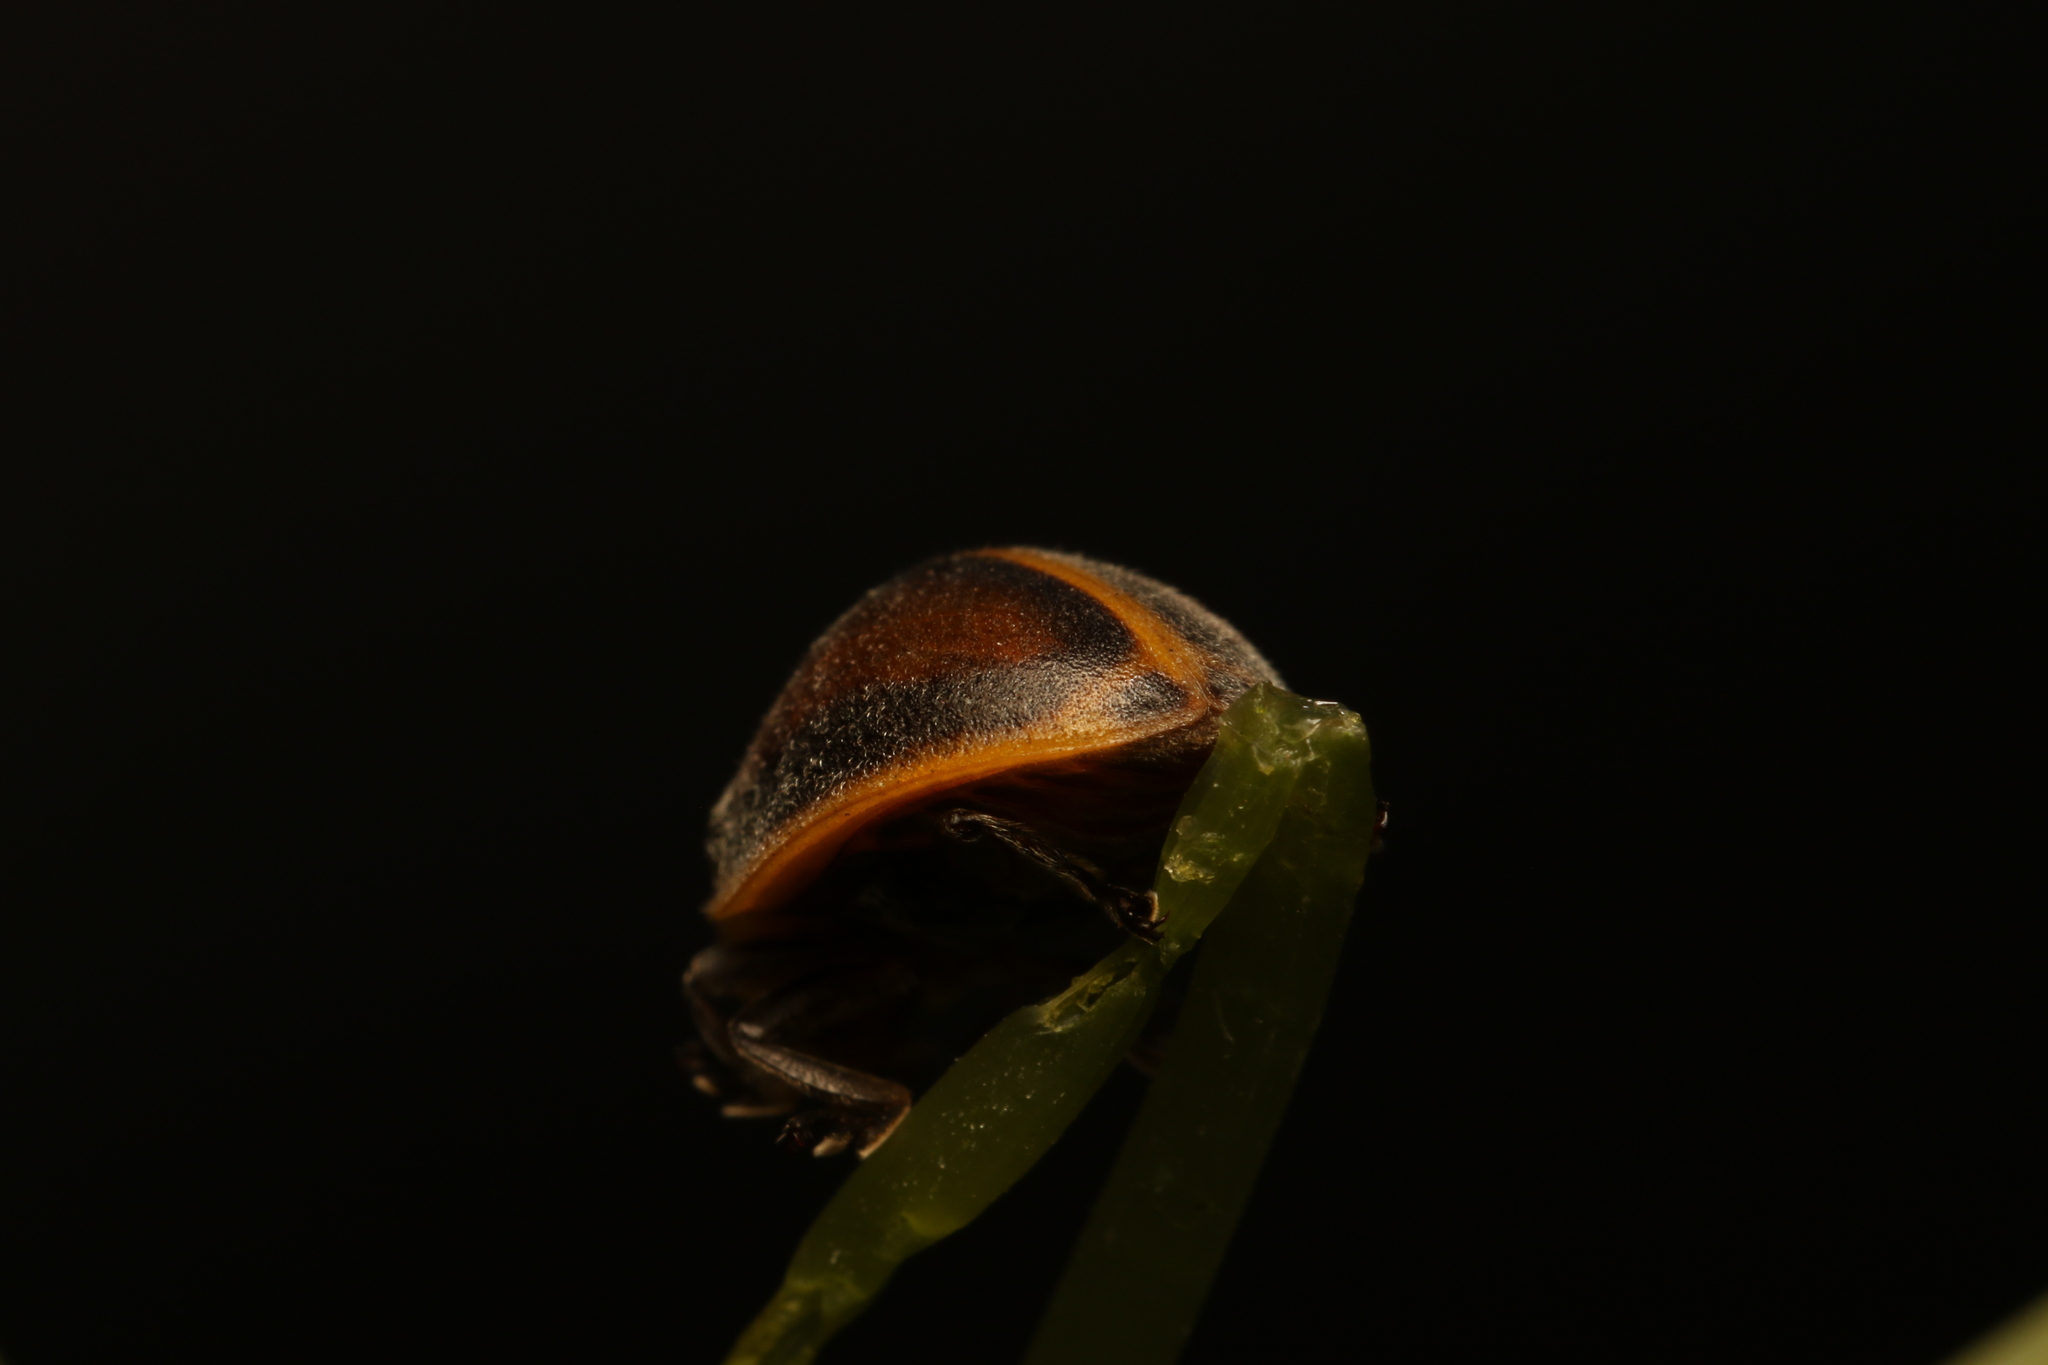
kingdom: Animalia
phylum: Arthropoda
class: Insecta
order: Coleoptera
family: Coccinellidae
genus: Epilachna
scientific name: Epilachna
